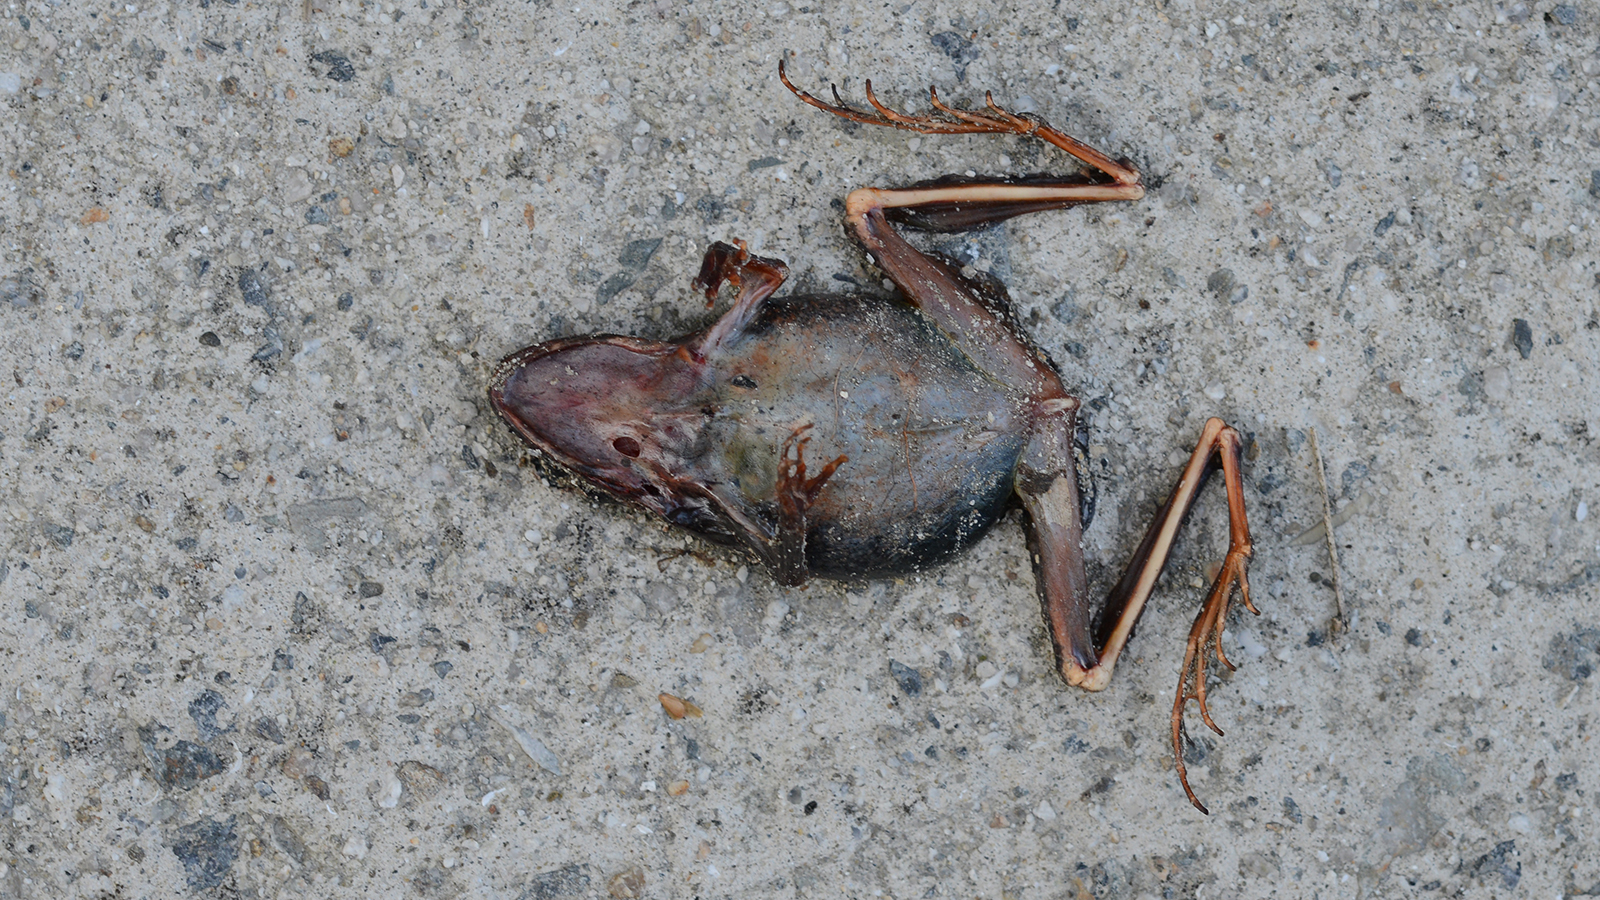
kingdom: Animalia
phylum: Chordata
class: Amphibia
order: Anura
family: Ranidae
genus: Rana
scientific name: Rana coreana
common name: Korean brown frog
